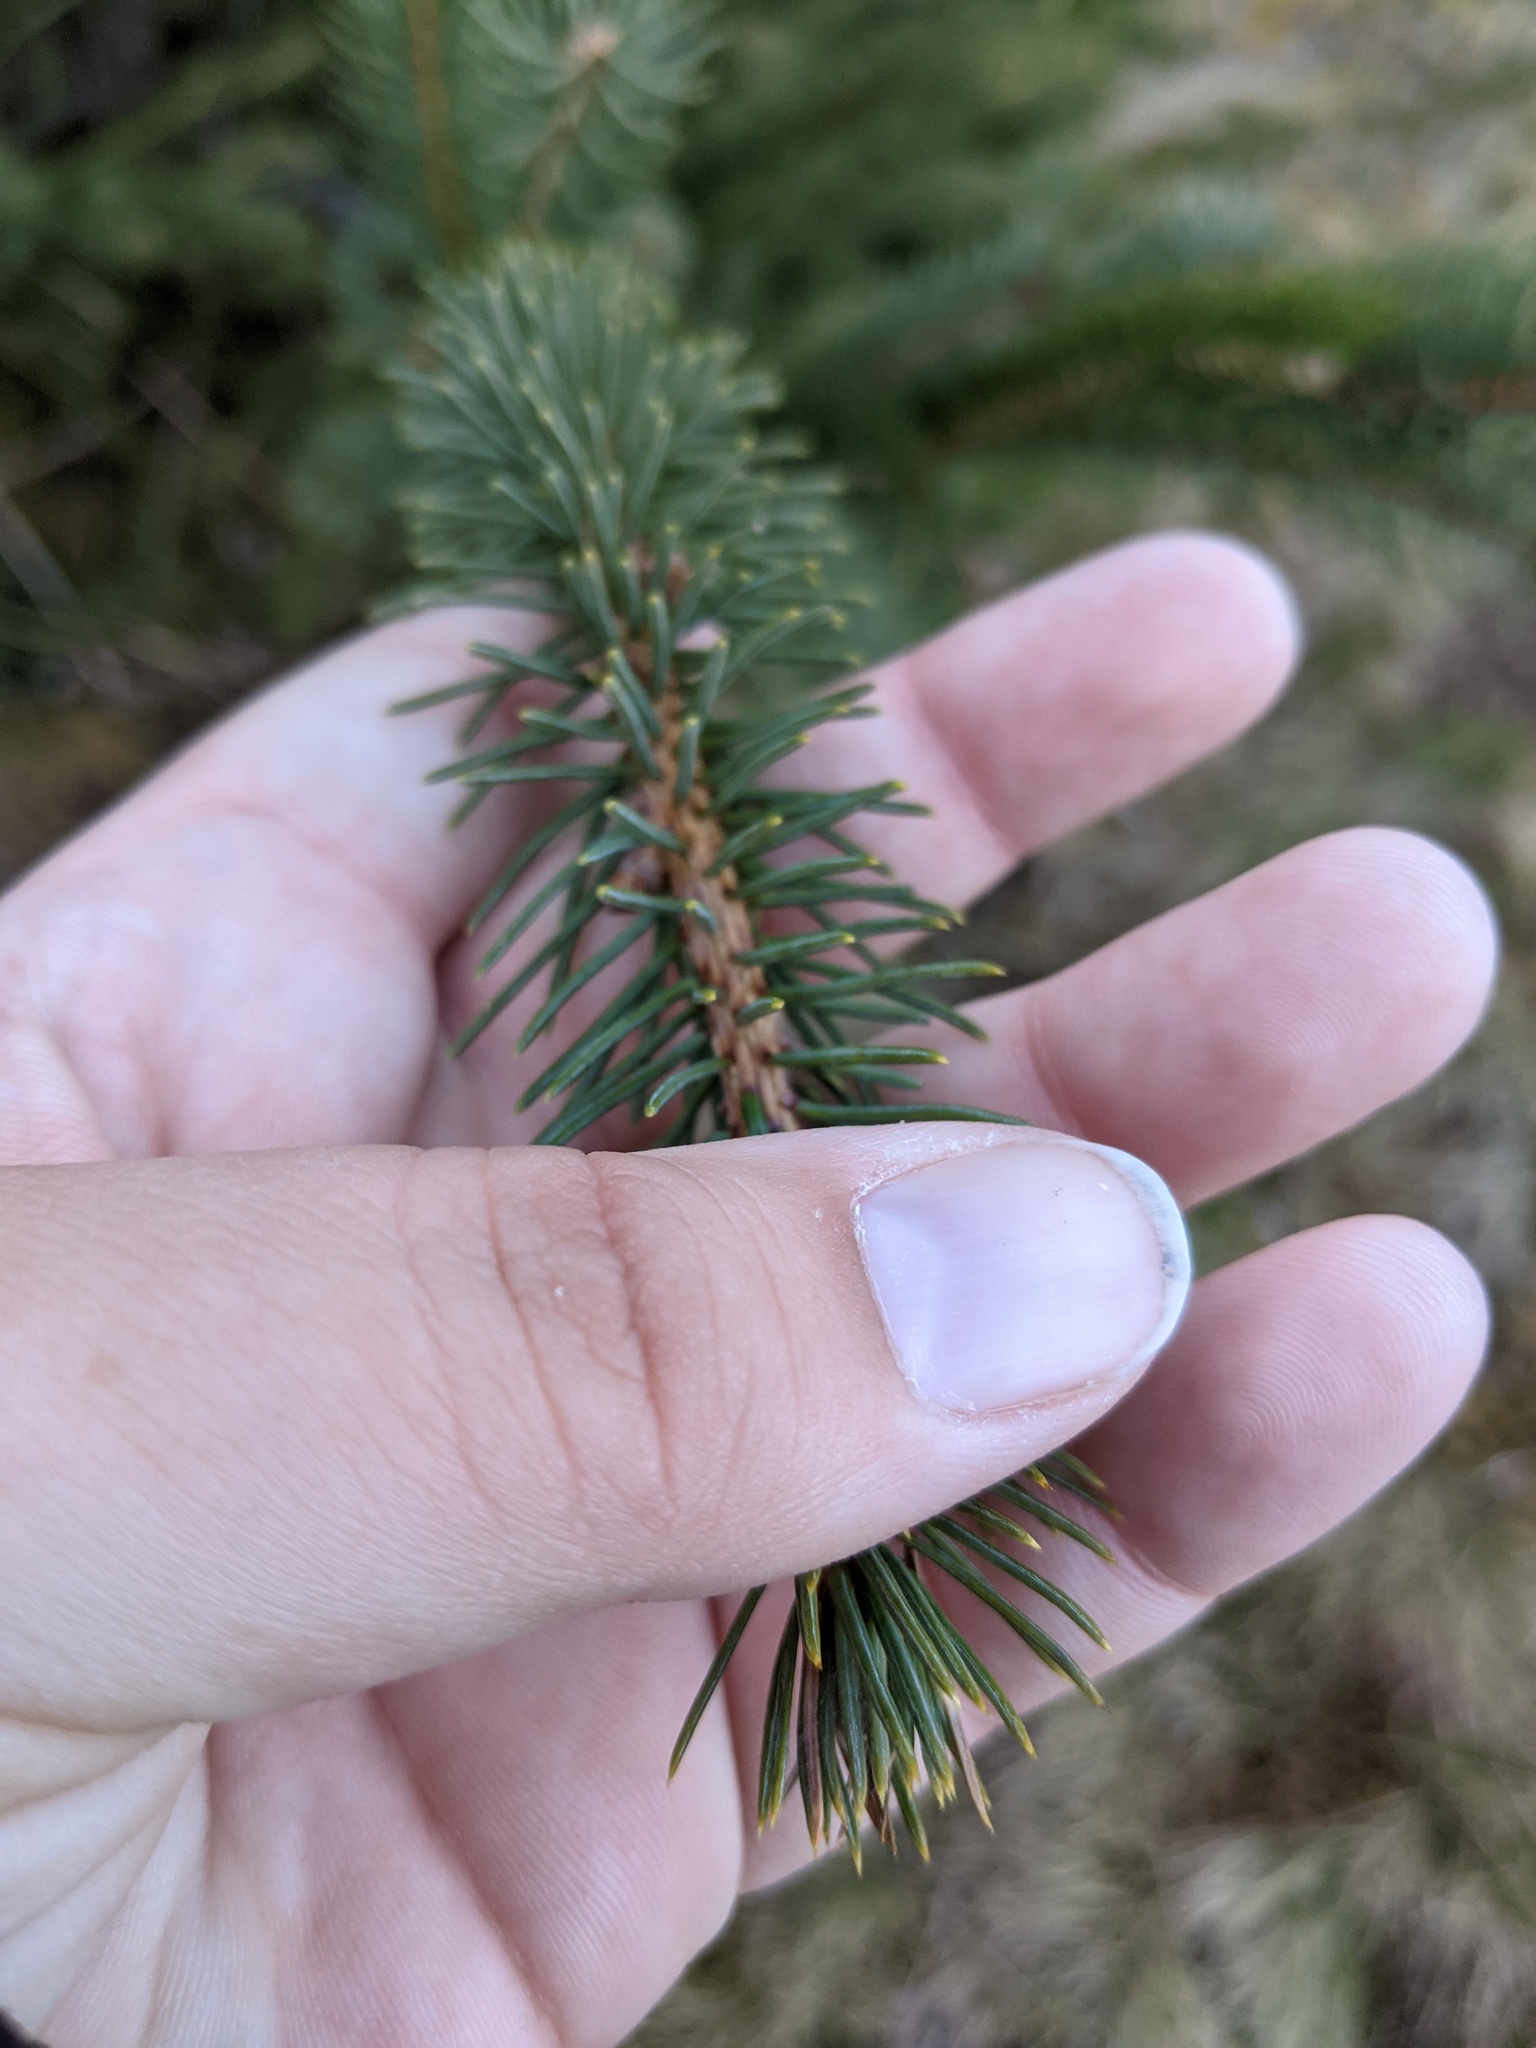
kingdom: Plantae
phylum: Tracheophyta
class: Pinopsida
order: Pinales
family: Pinaceae
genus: Picea
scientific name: Picea glauca
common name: White spruce
